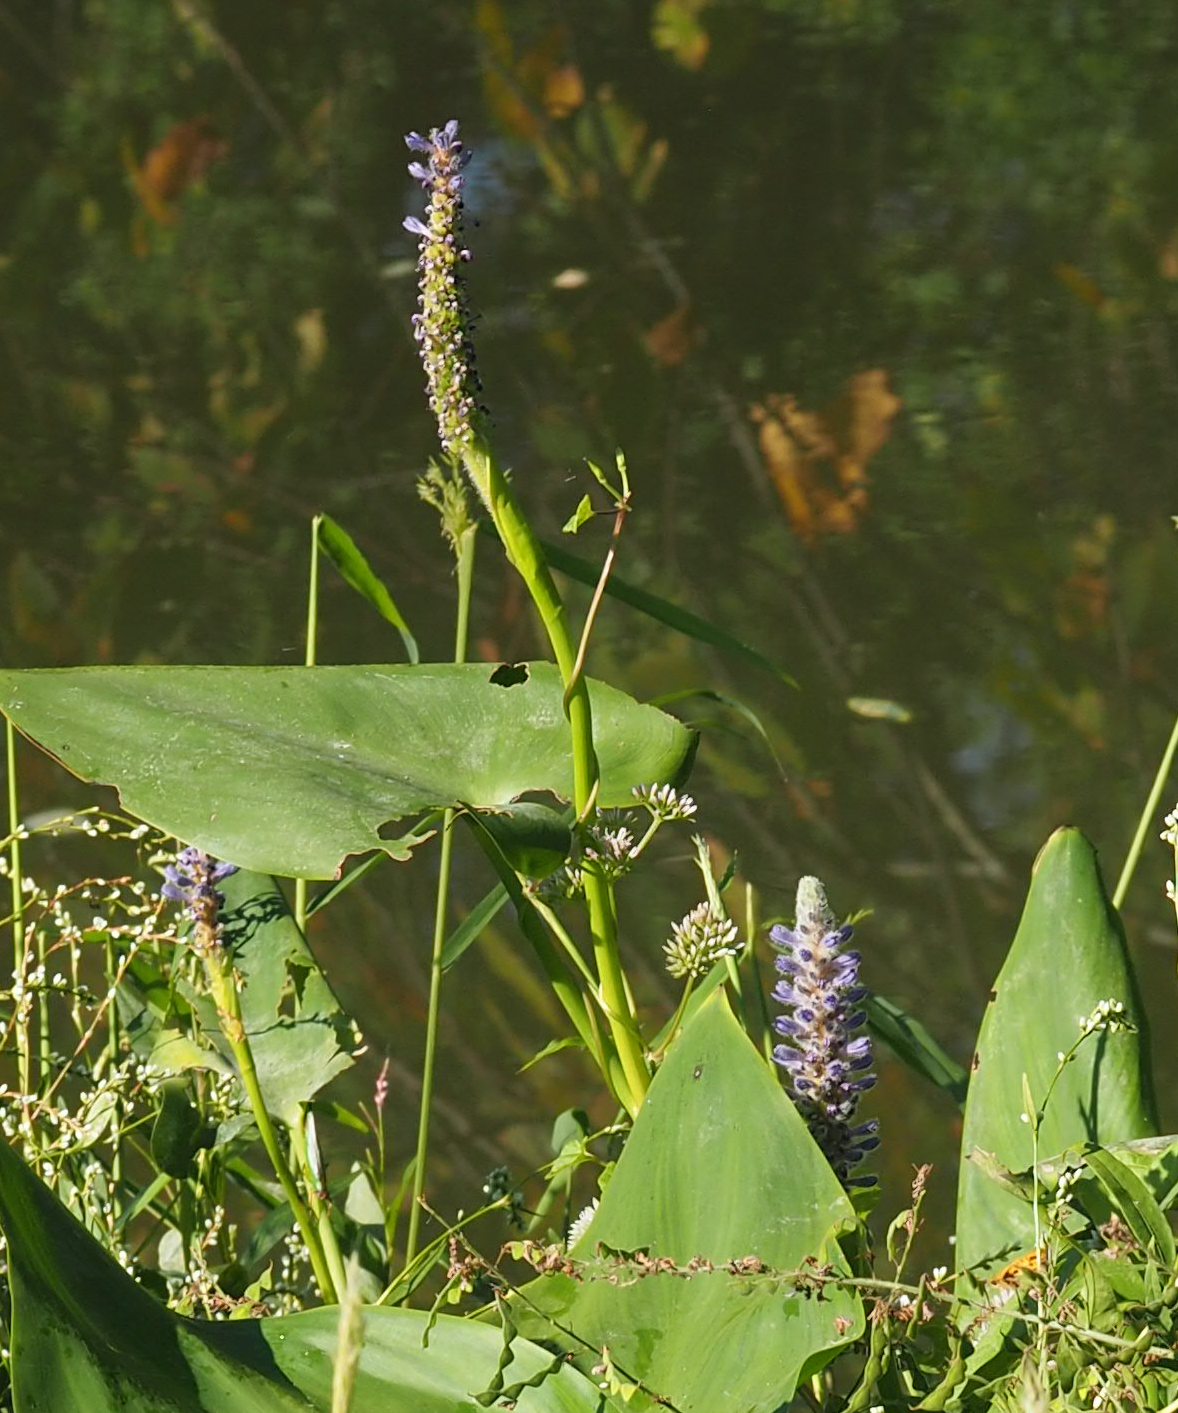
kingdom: Plantae
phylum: Tracheophyta
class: Liliopsida
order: Commelinales
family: Pontederiaceae
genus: Pontederia
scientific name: Pontederia cordata
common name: Pickerelweed
